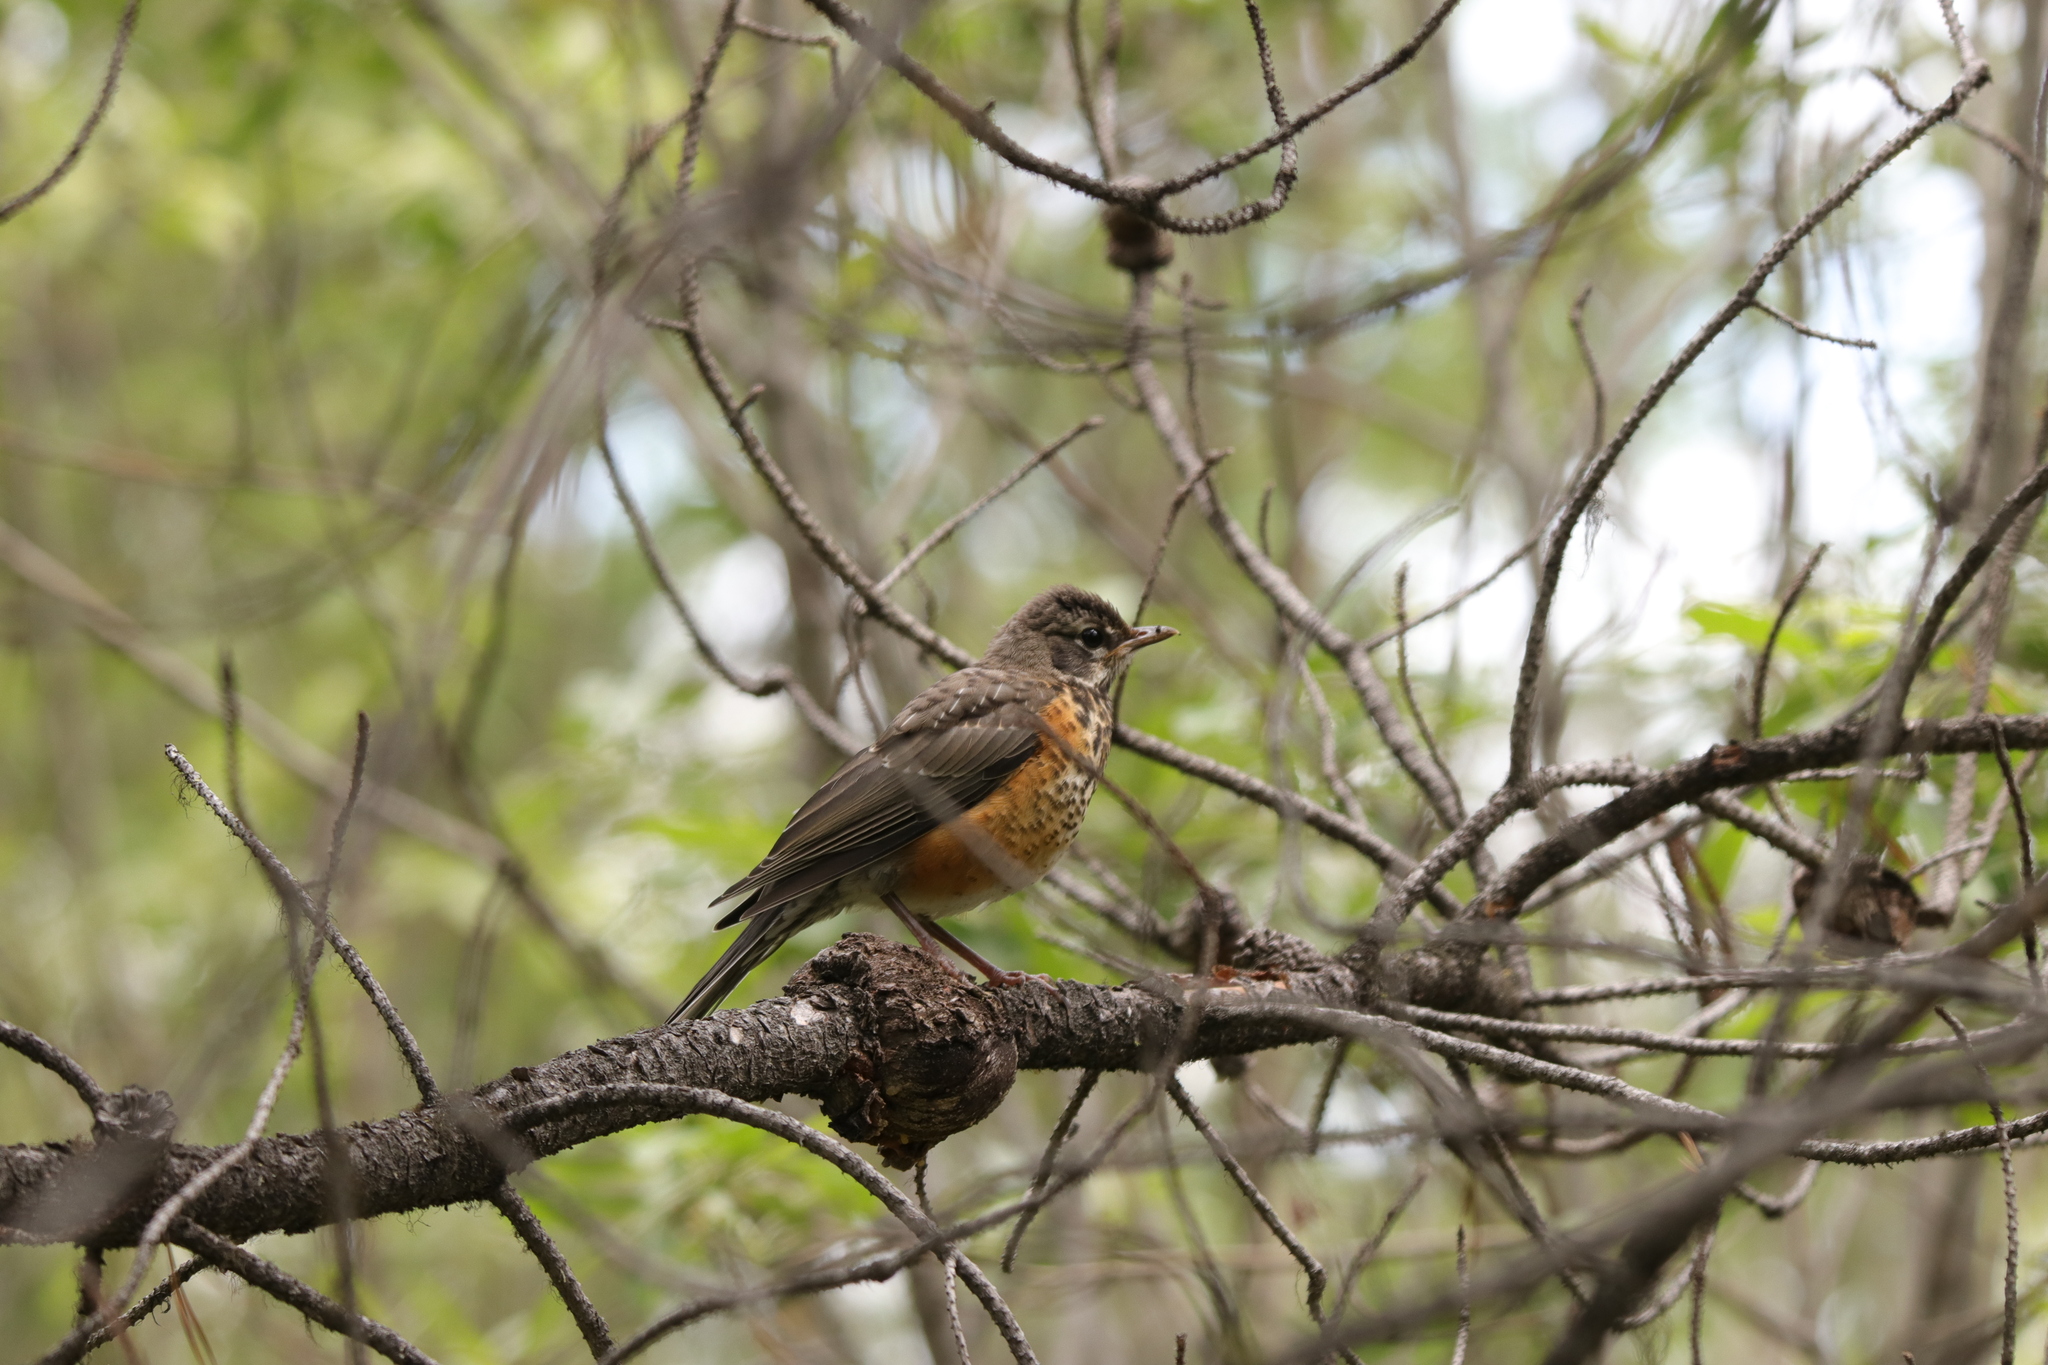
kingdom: Animalia
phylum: Chordata
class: Aves
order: Passeriformes
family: Turdidae
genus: Turdus
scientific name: Turdus migratorius
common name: American robin
